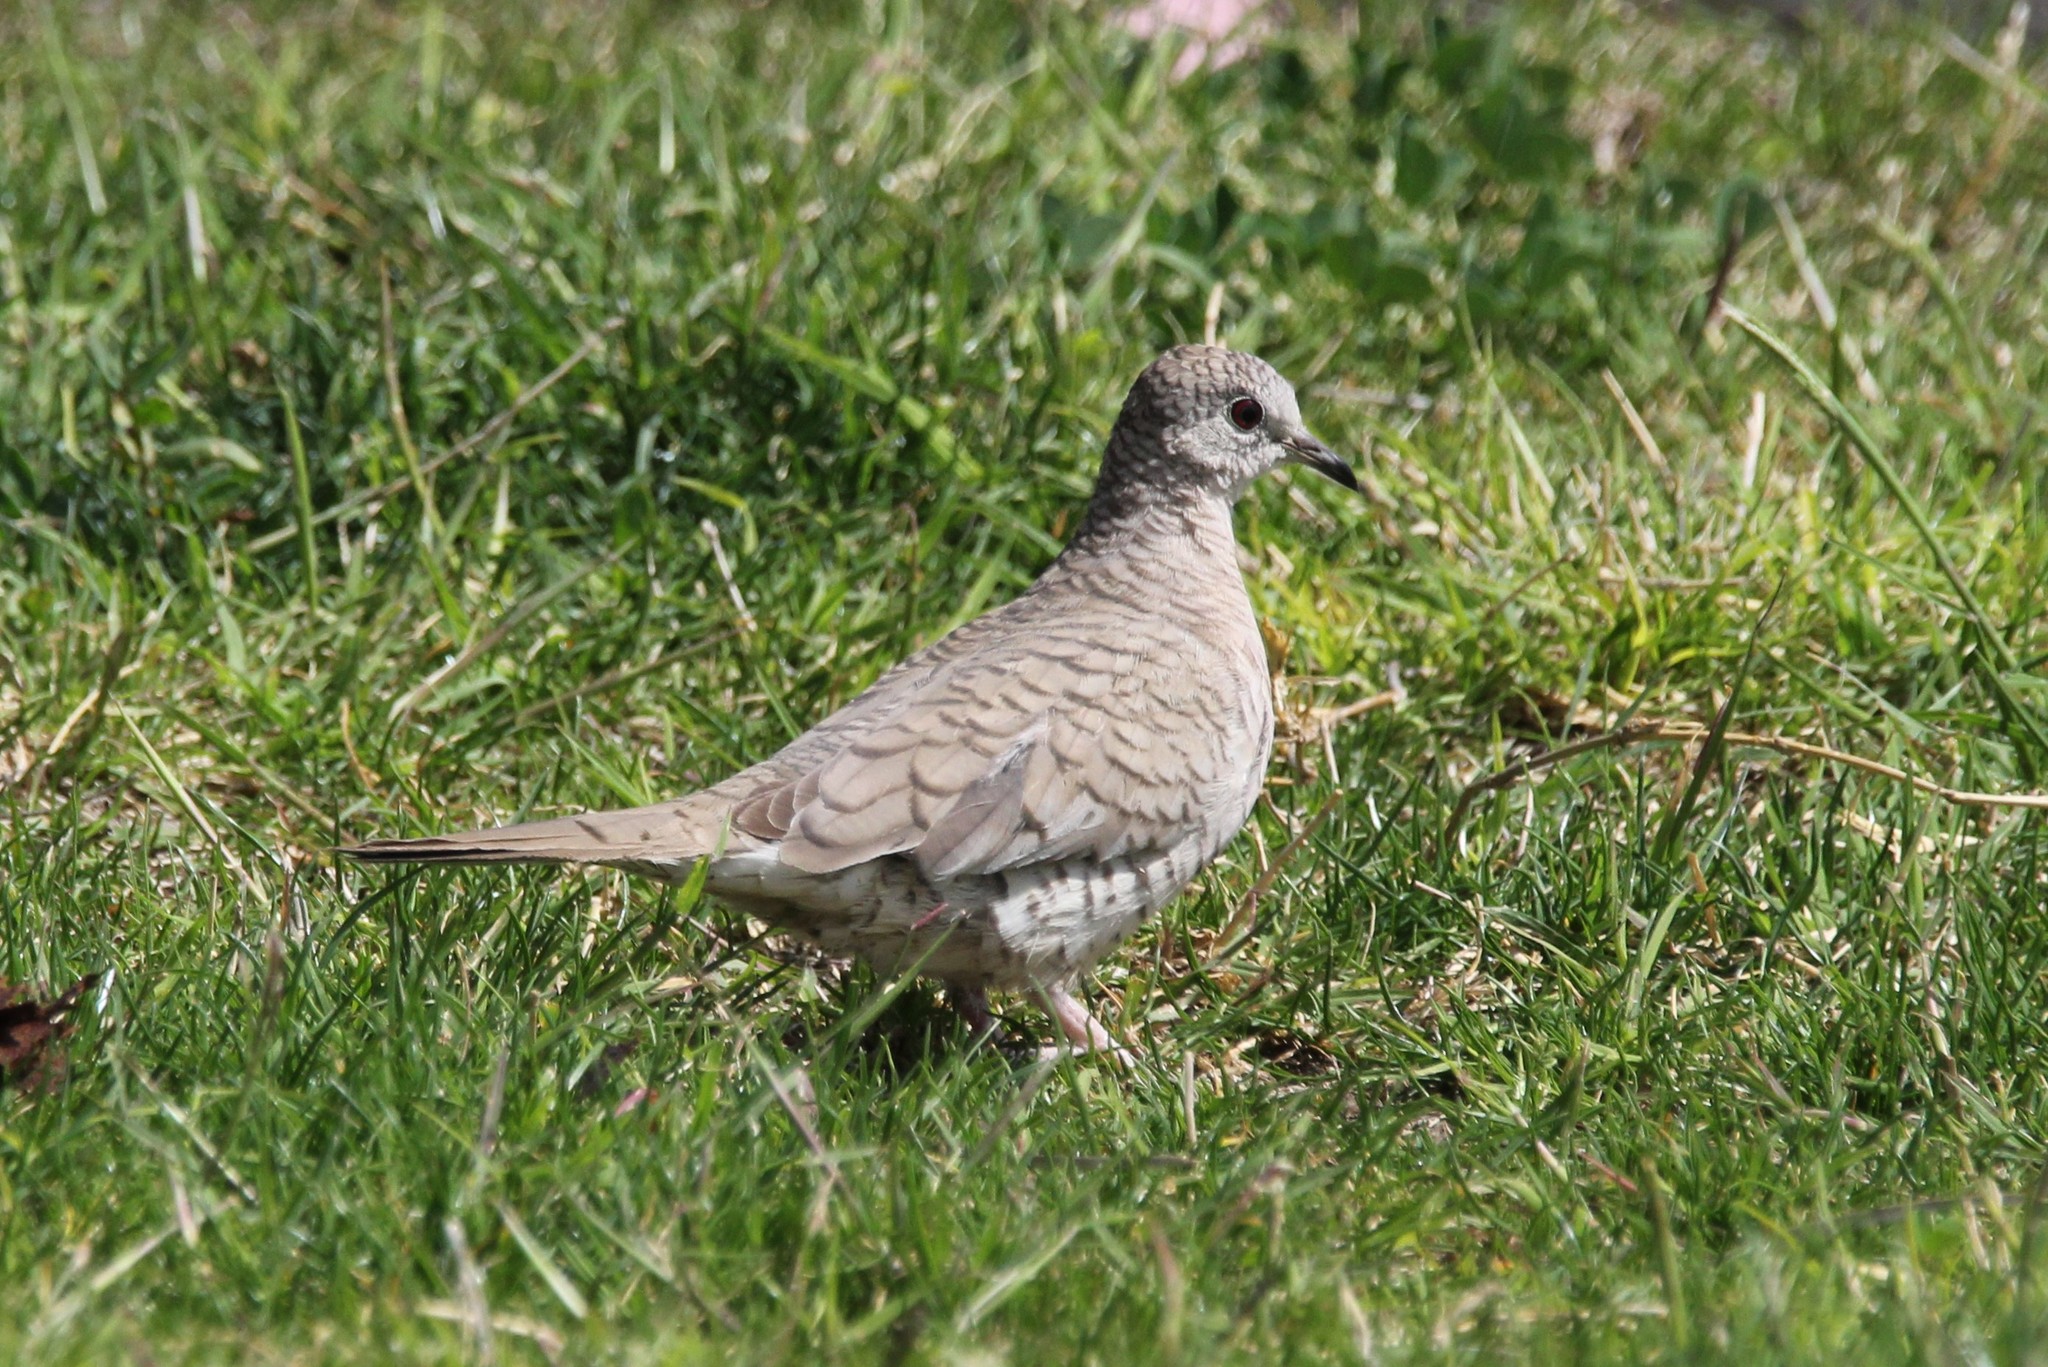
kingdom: Animalia
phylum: Chordata
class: Aves
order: Columbiformes
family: Columbidae
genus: Columbina
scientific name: Columbina inca
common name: Inca dove
